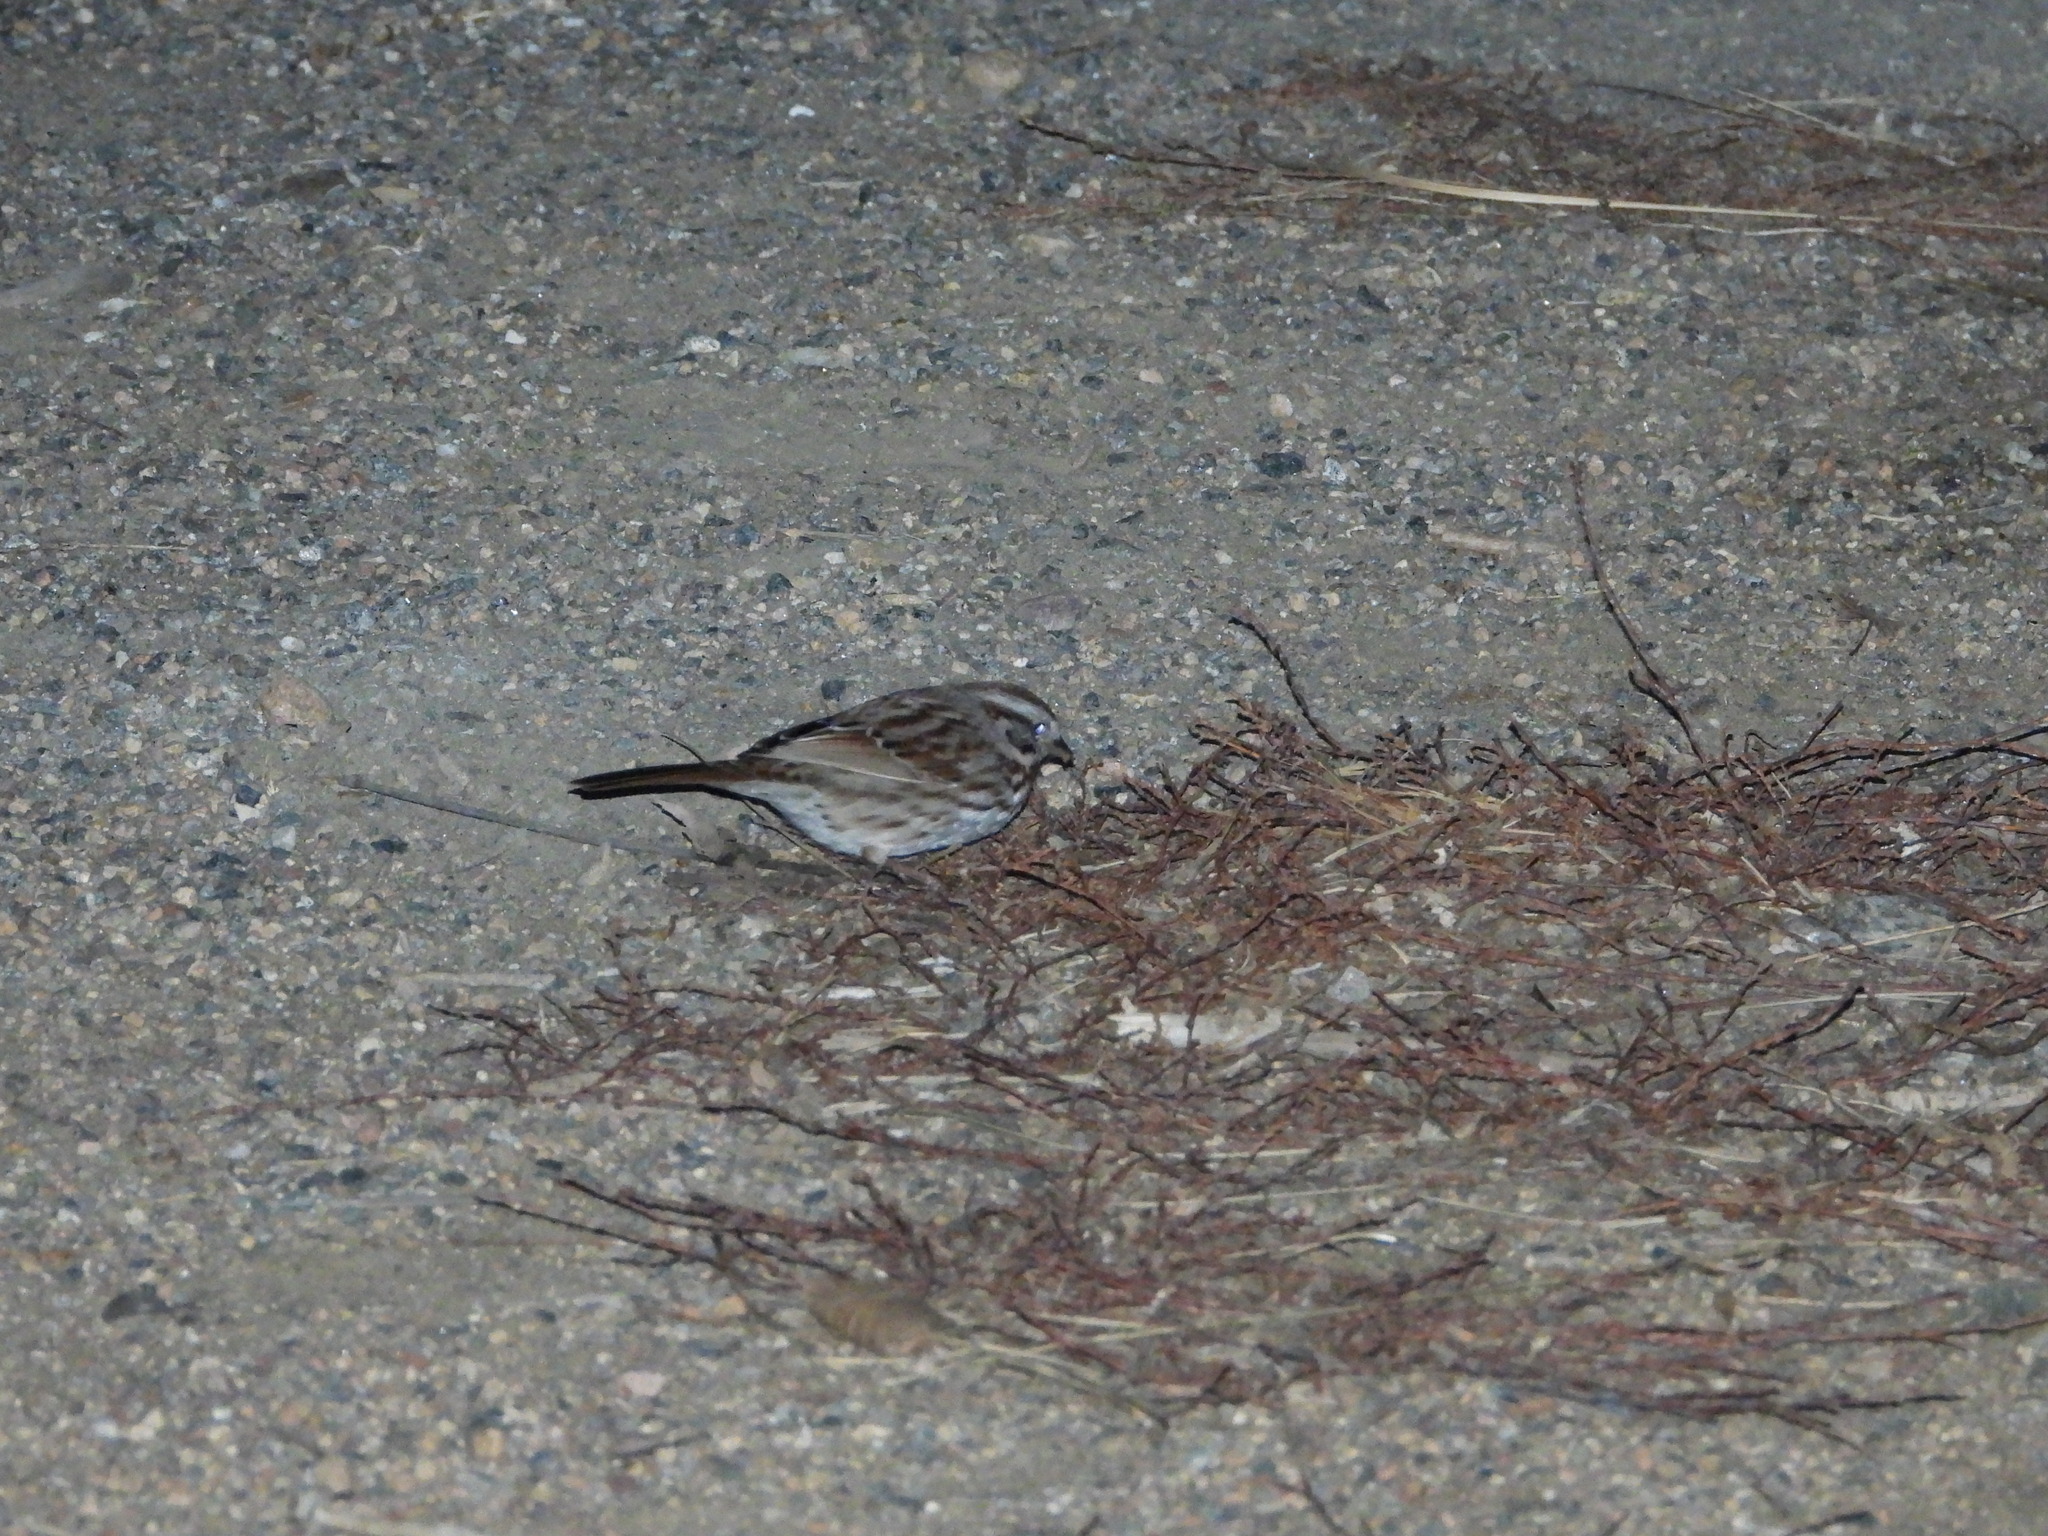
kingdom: Animalia
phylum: Chordata
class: Aves
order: Passeriformes
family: Passerellidae
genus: Melospiza
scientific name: Melospiza melodia
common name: Song sparrow
